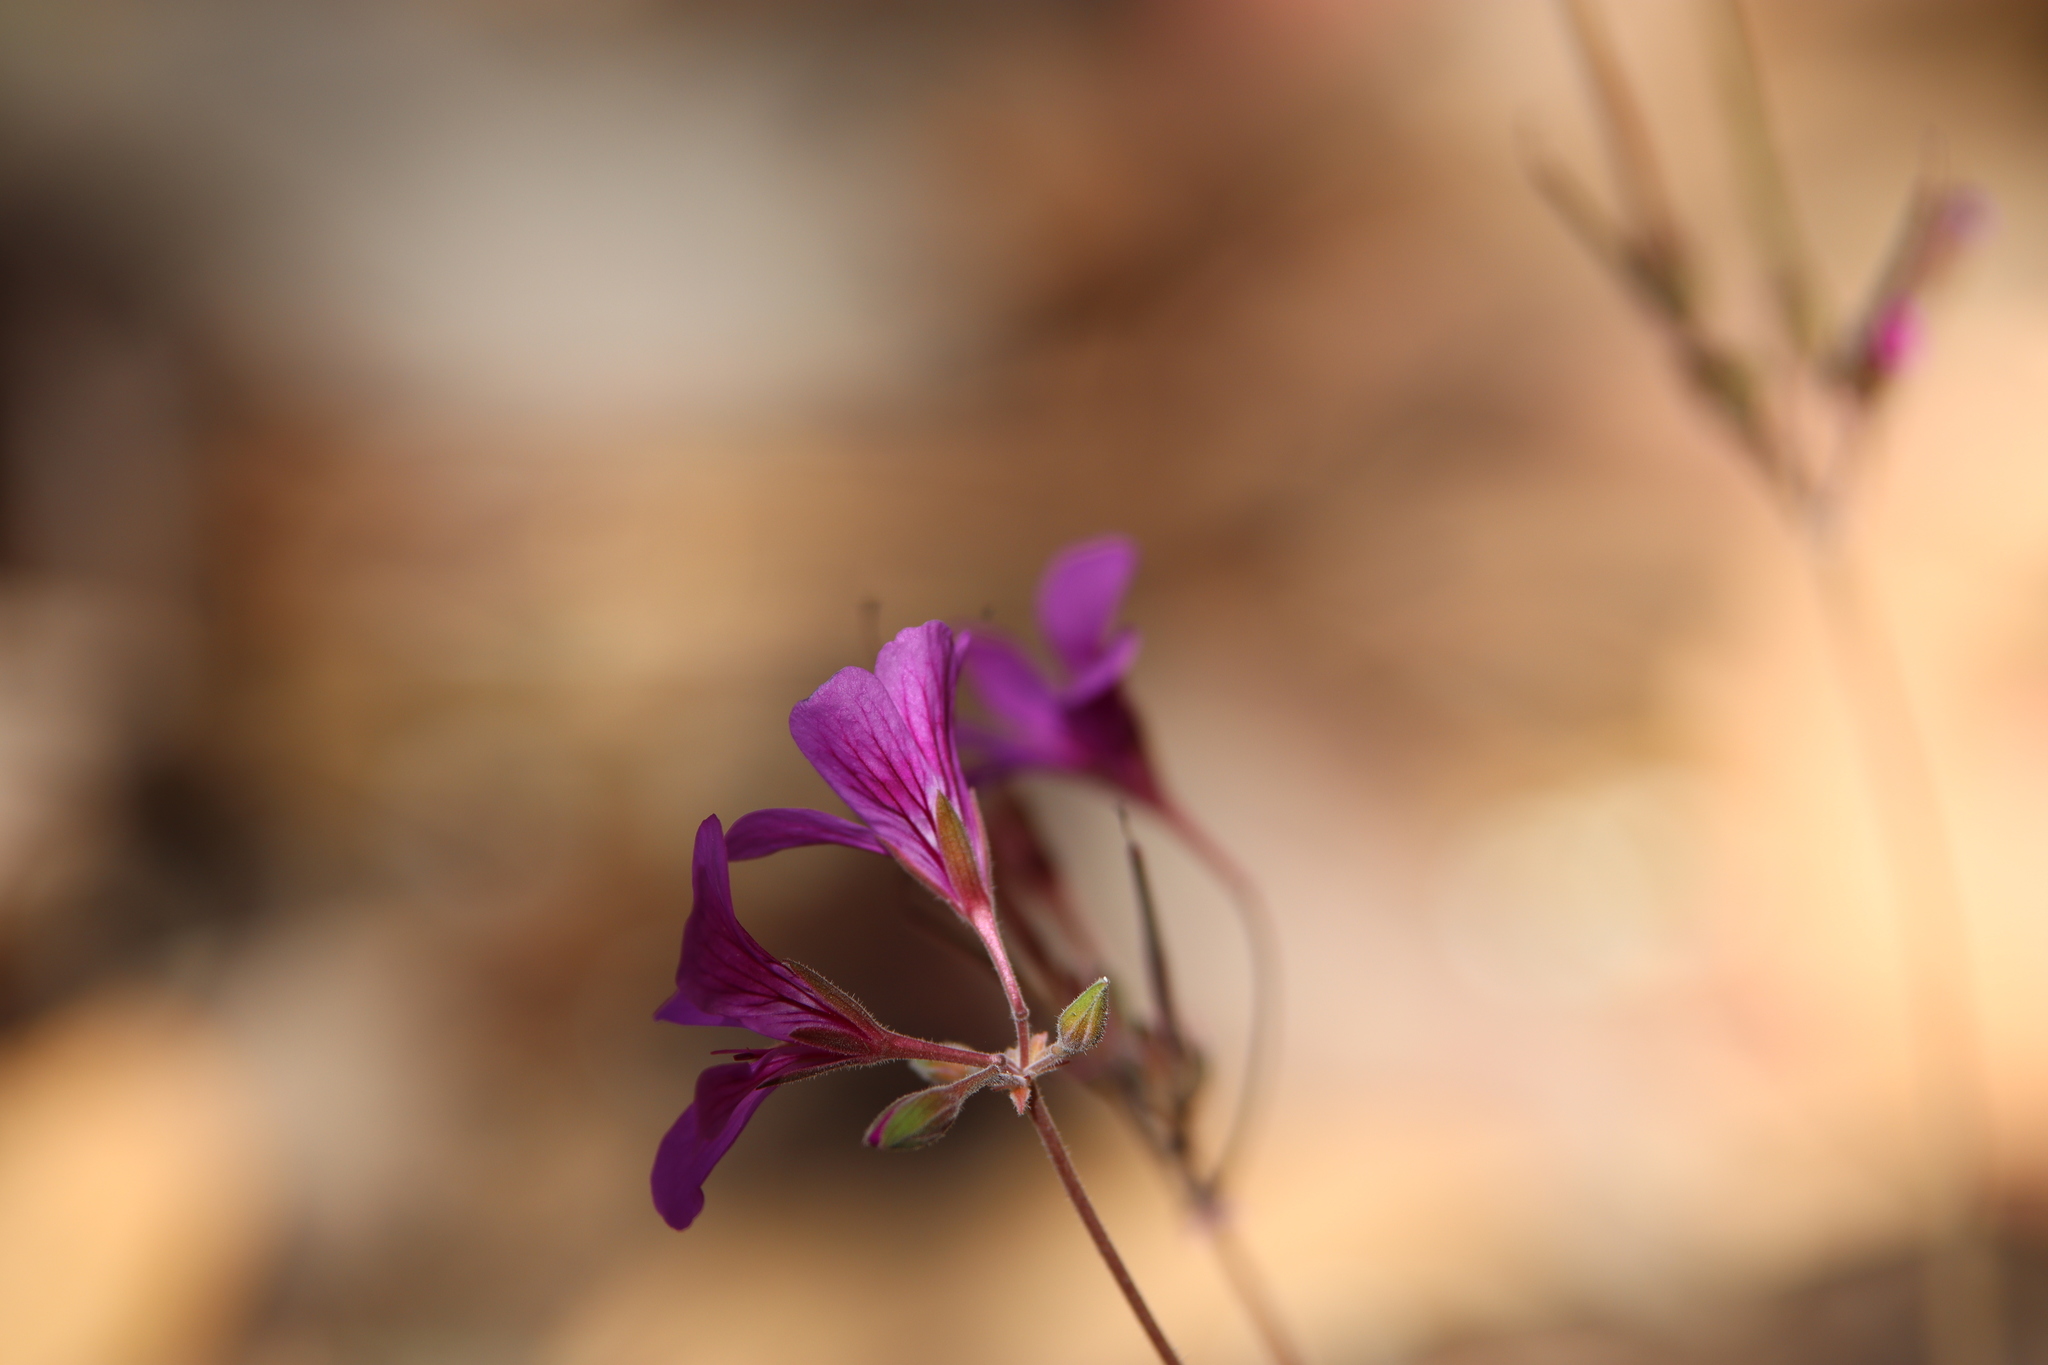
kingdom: Plantae
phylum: Tracheophyta
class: Magnoliopsida
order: Geraniales
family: Geraniaceae
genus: Pelargonium
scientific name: Pelargonium rodneyanum
